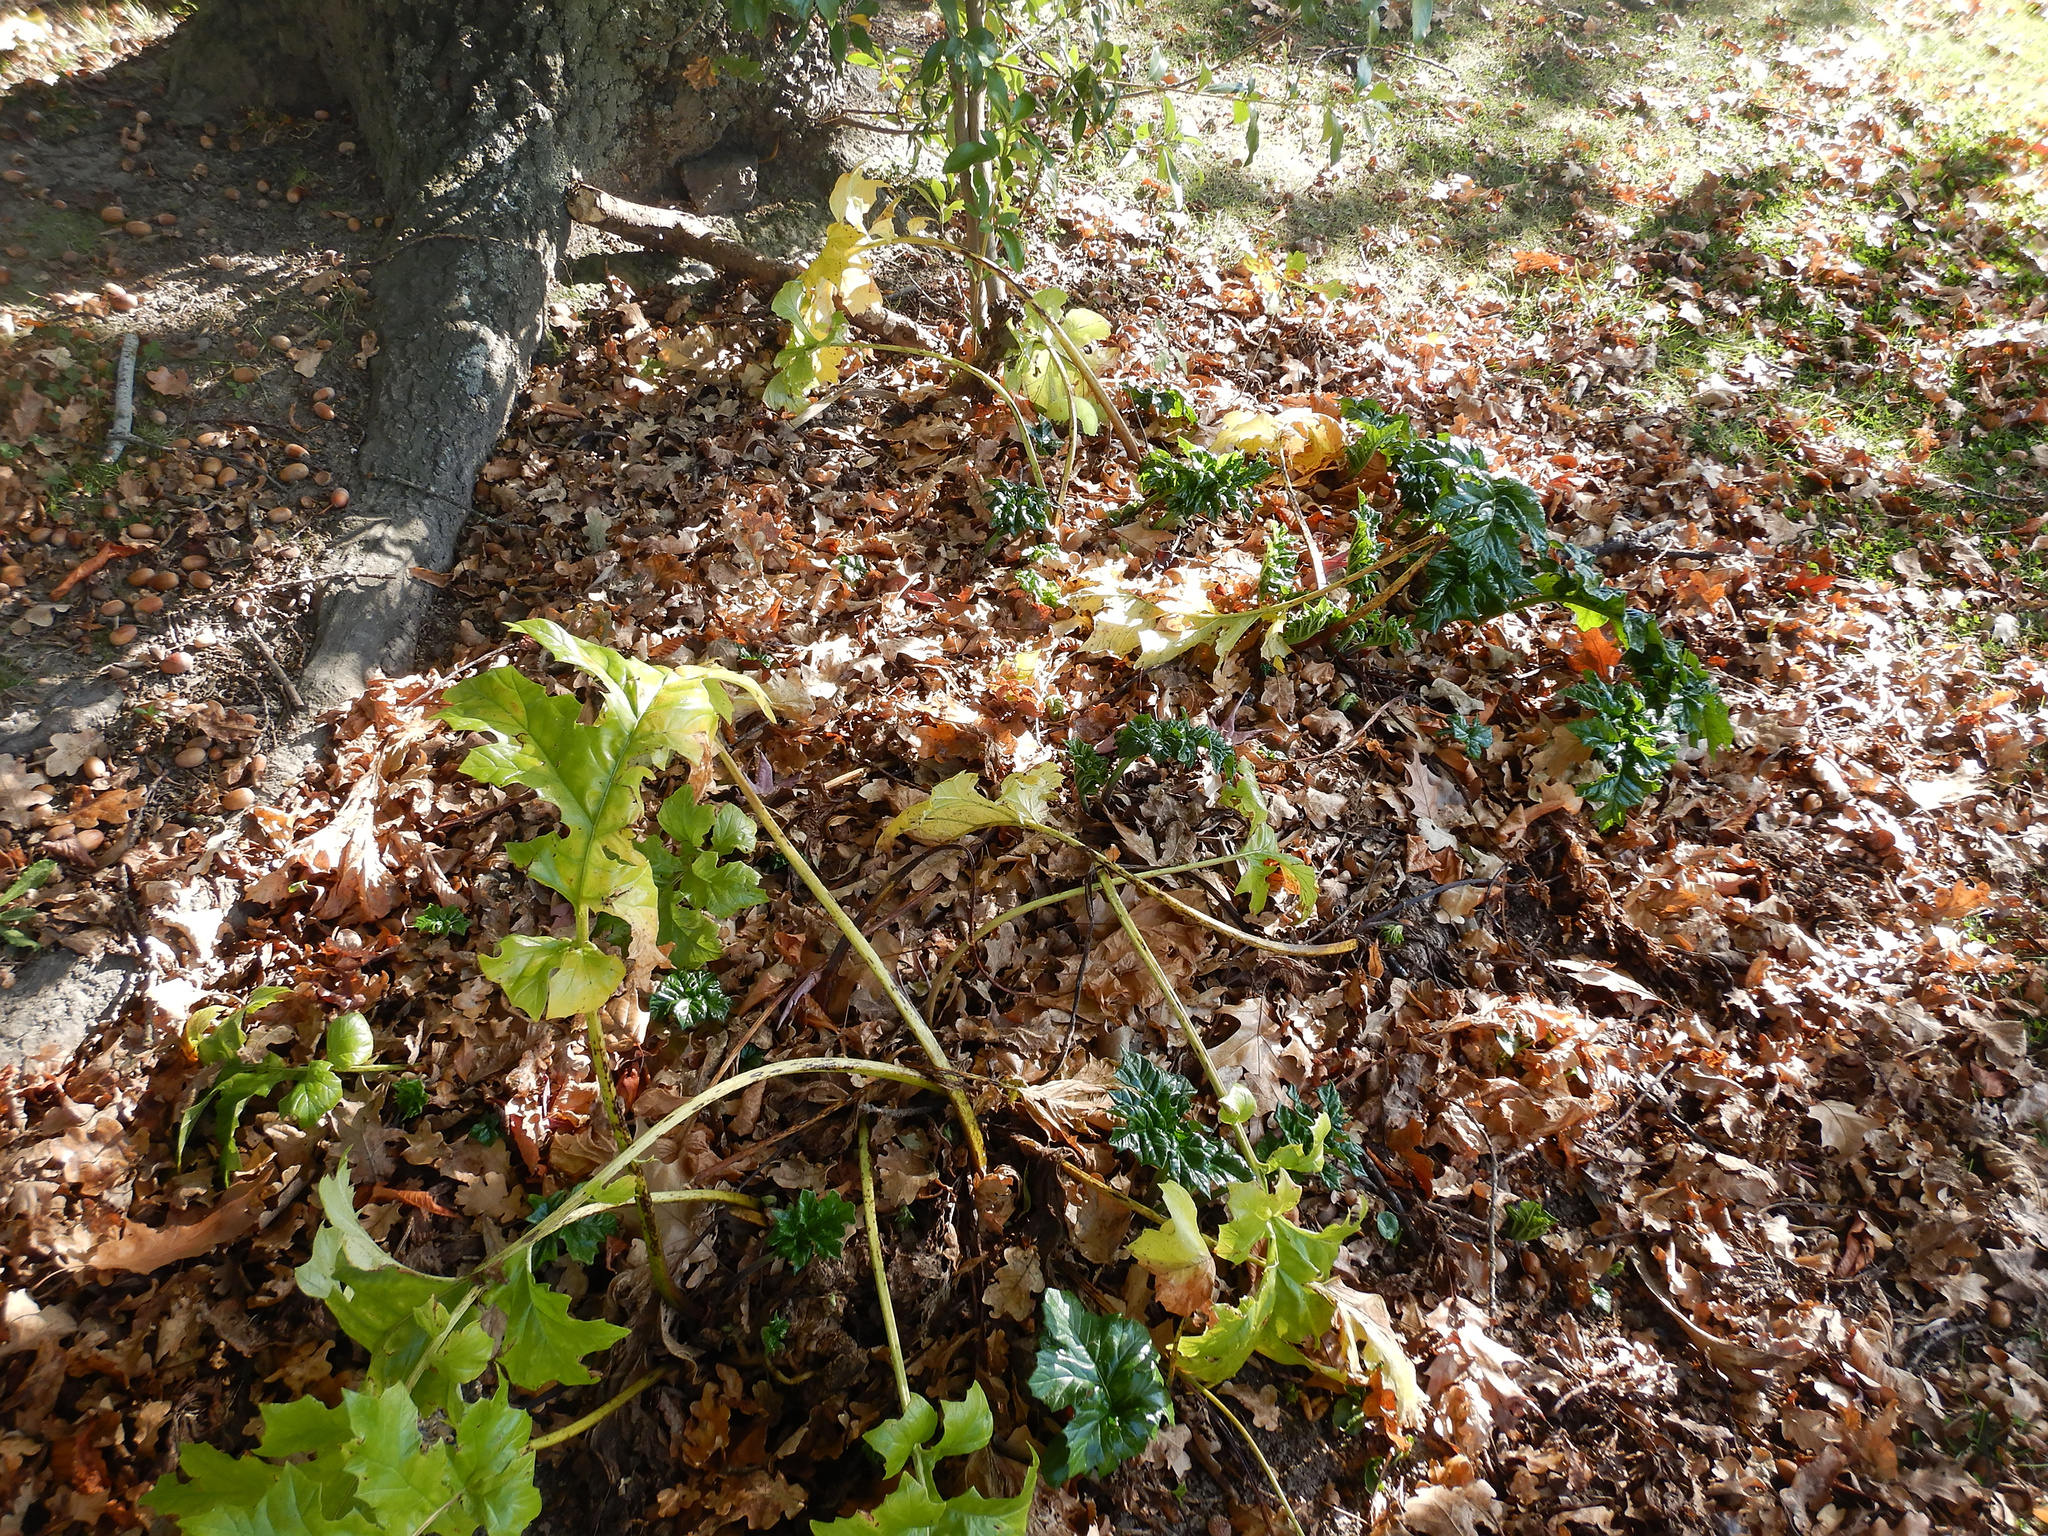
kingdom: Plantae
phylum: Tracheophyta
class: Magnoliopsida
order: Lamiales
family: Acanthaceae
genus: Acanthus
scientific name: Acanthus mollis
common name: Bear's-breech
